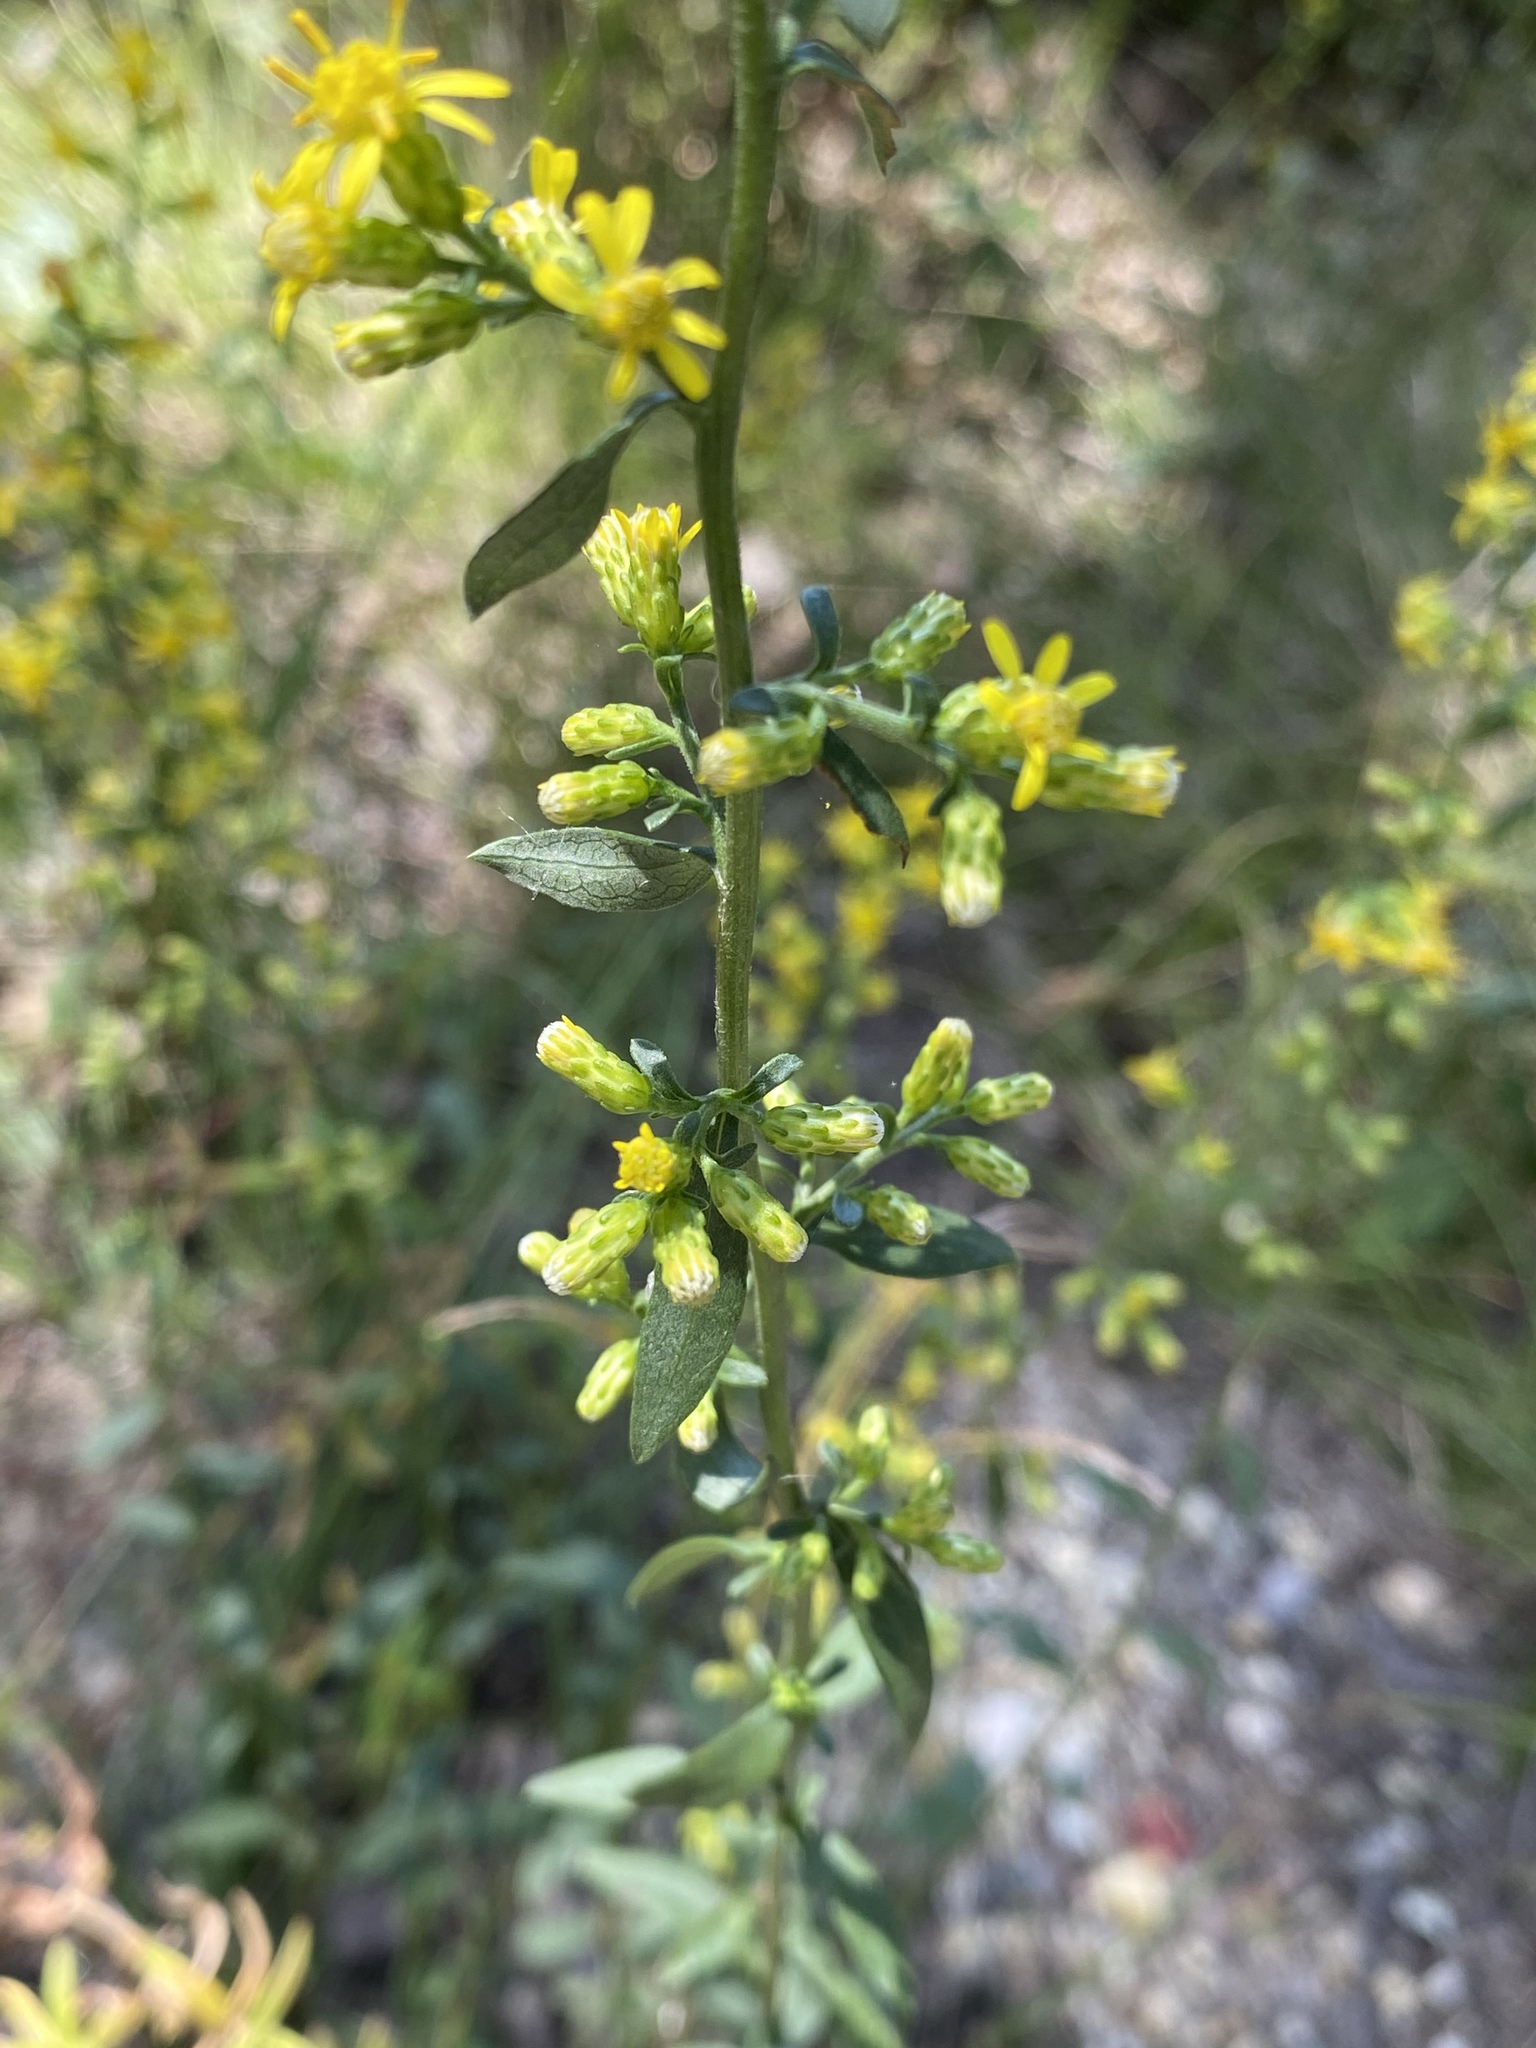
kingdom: Plantae
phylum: Tracheophyta
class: Magnoliopsida
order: Asterales
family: Asteraceae
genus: Solidago
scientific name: Solidago erecta
